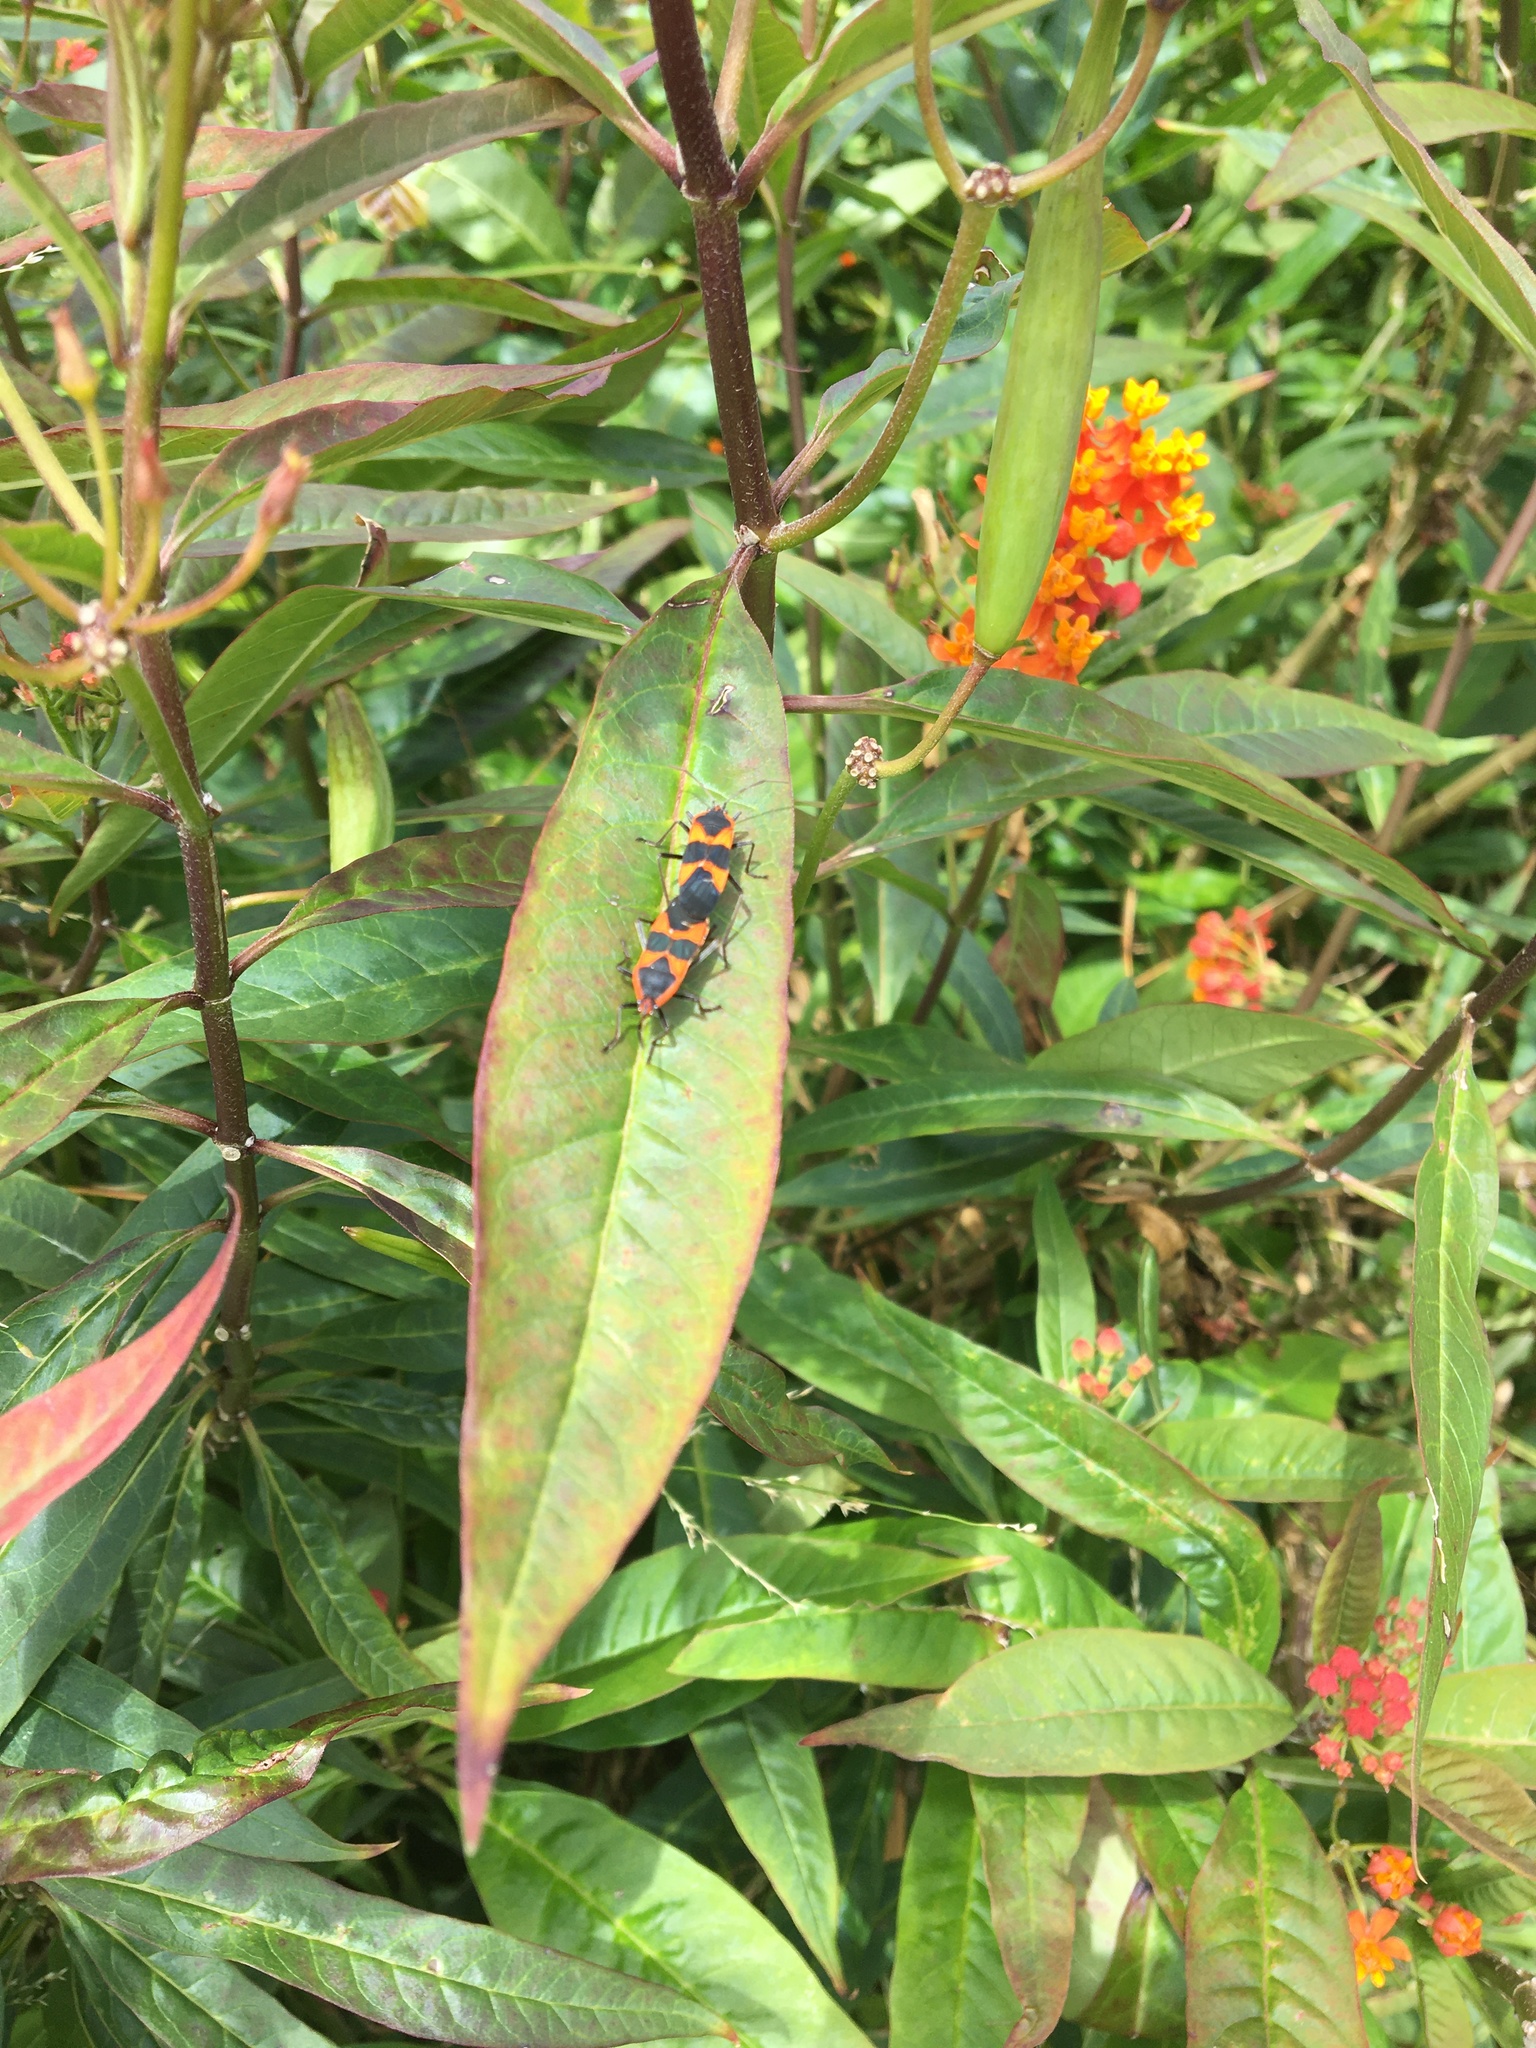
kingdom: Animalia
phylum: Arthropoda
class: Insecta
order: Hemiptera
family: Lygaeidae
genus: Oncopeltus
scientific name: Oncopeltus fasciatus
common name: Large milkweed bug
